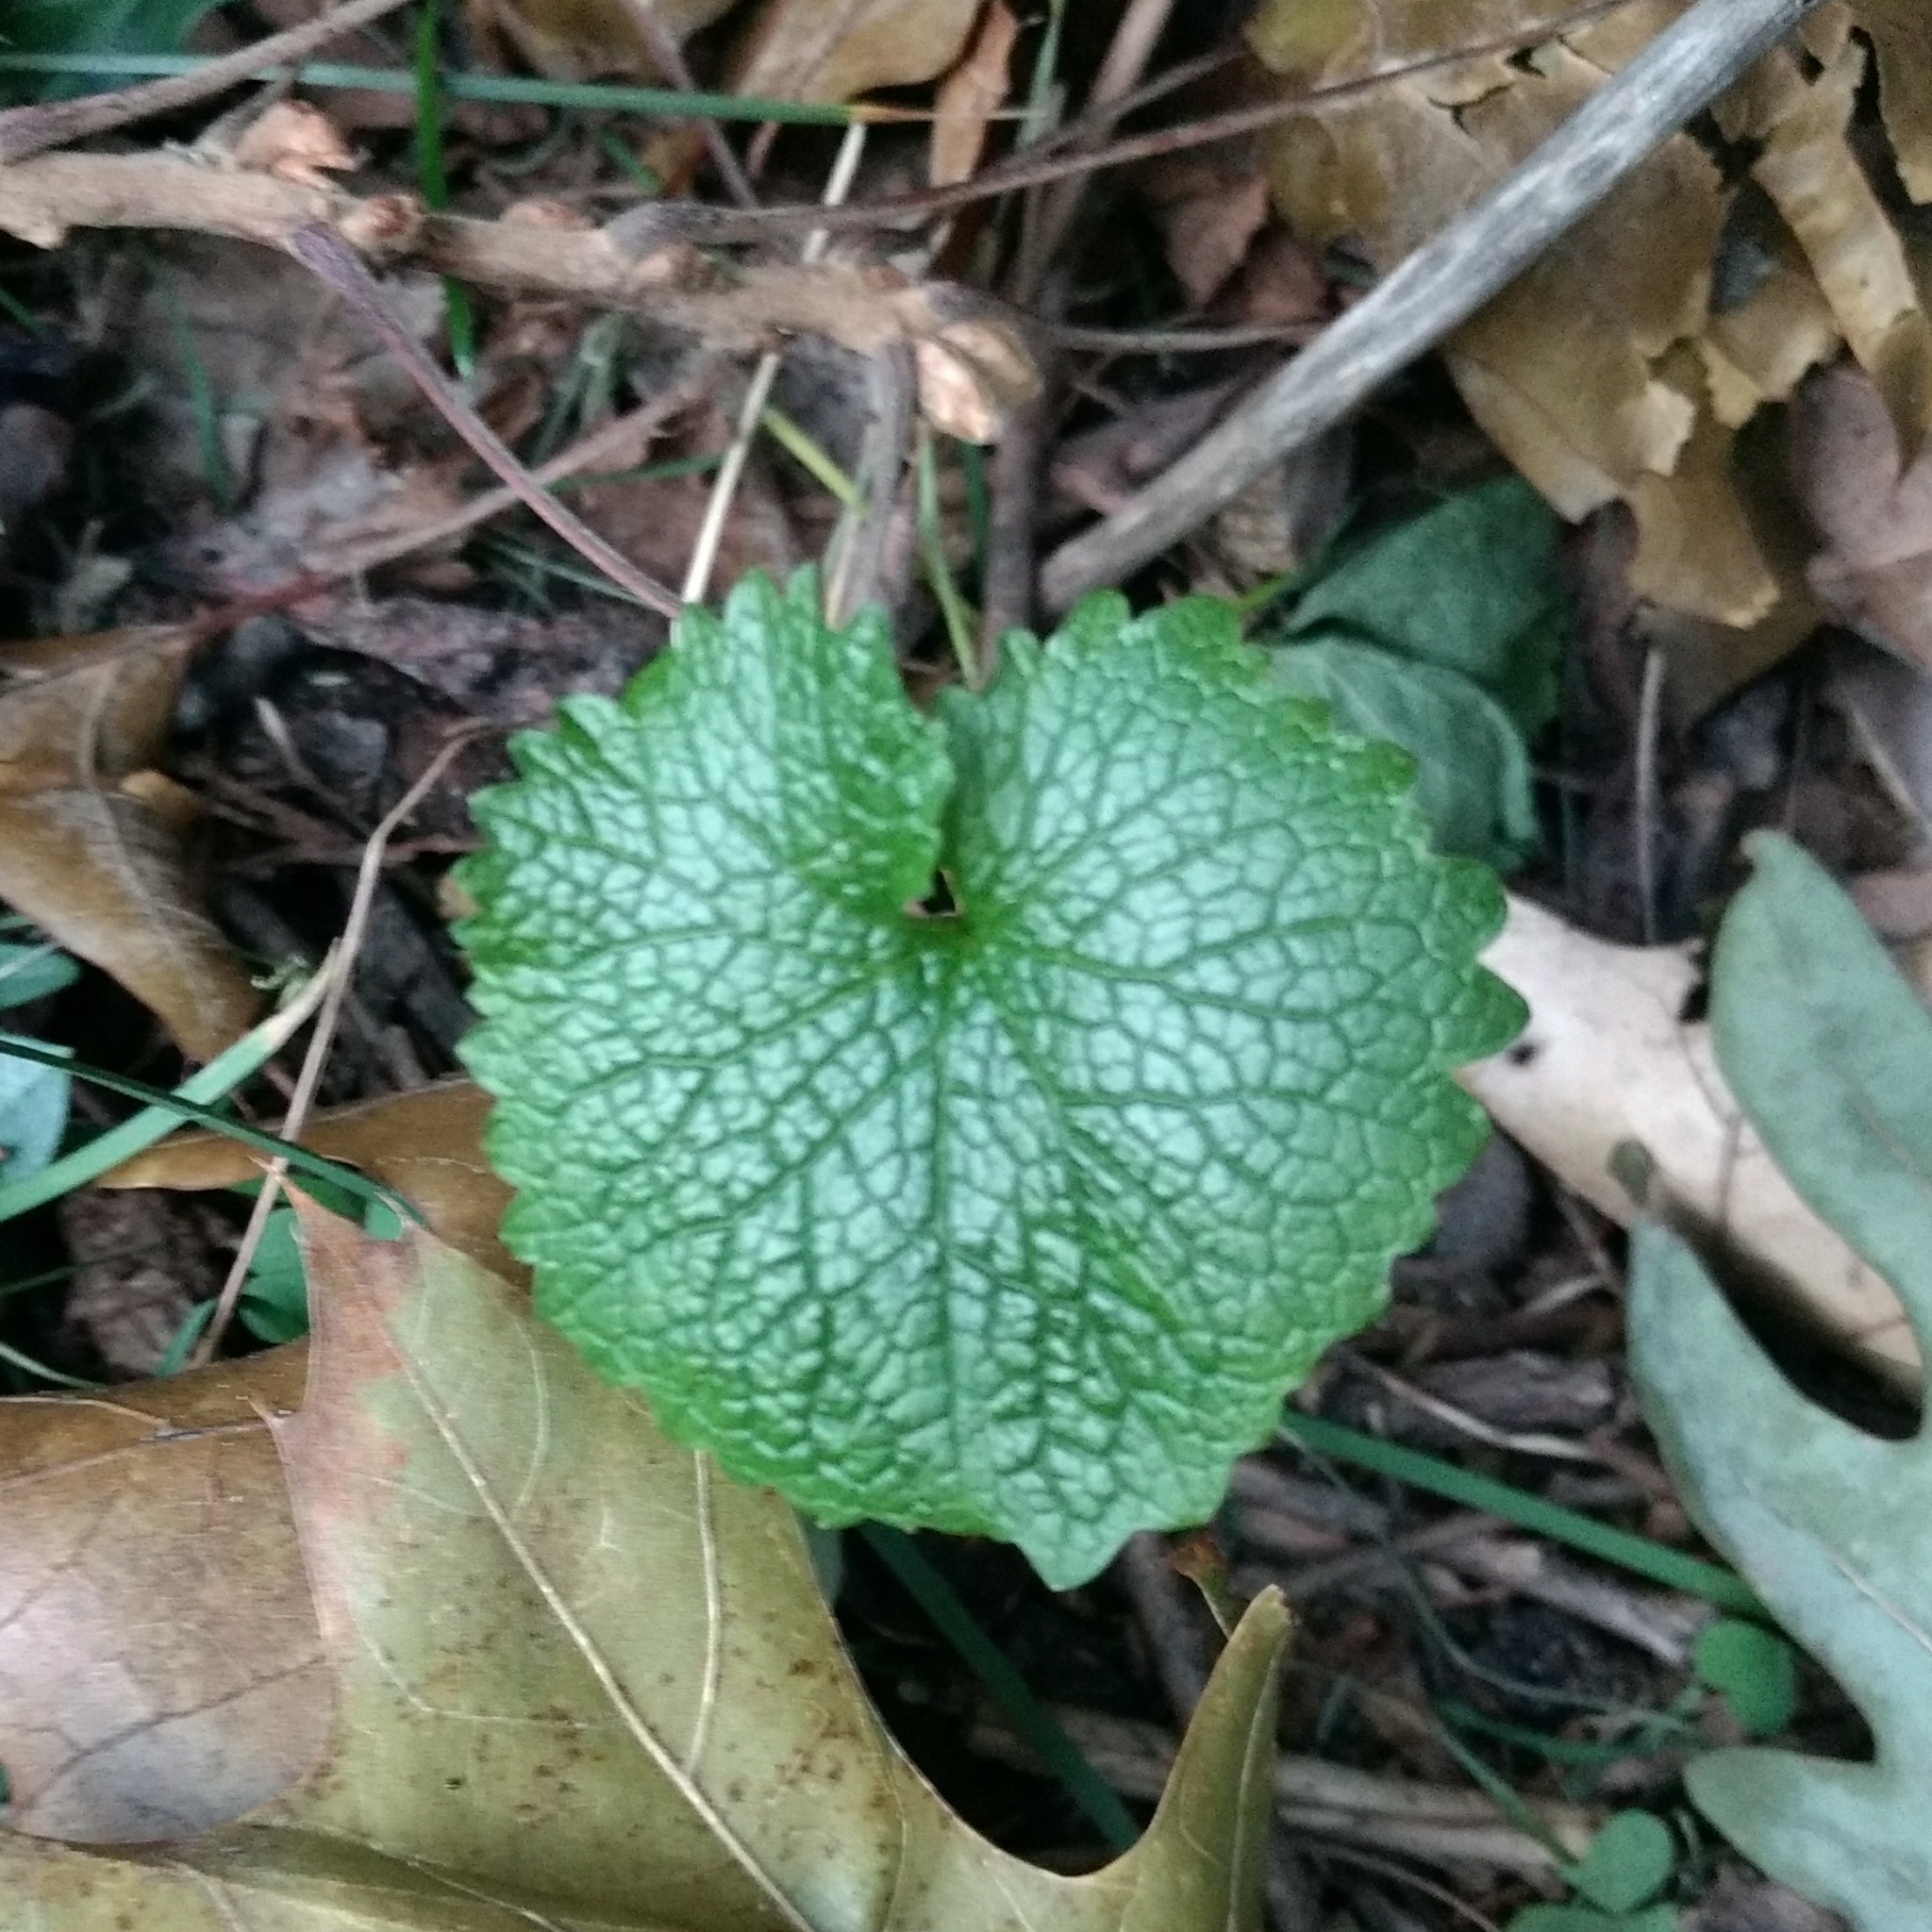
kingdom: Plantae
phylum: Tracheophyta
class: Magnoliopsida
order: Brassicales
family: Brassicaceae
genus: Alliaria
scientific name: Alliaria petiolata
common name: Garlic mustard
